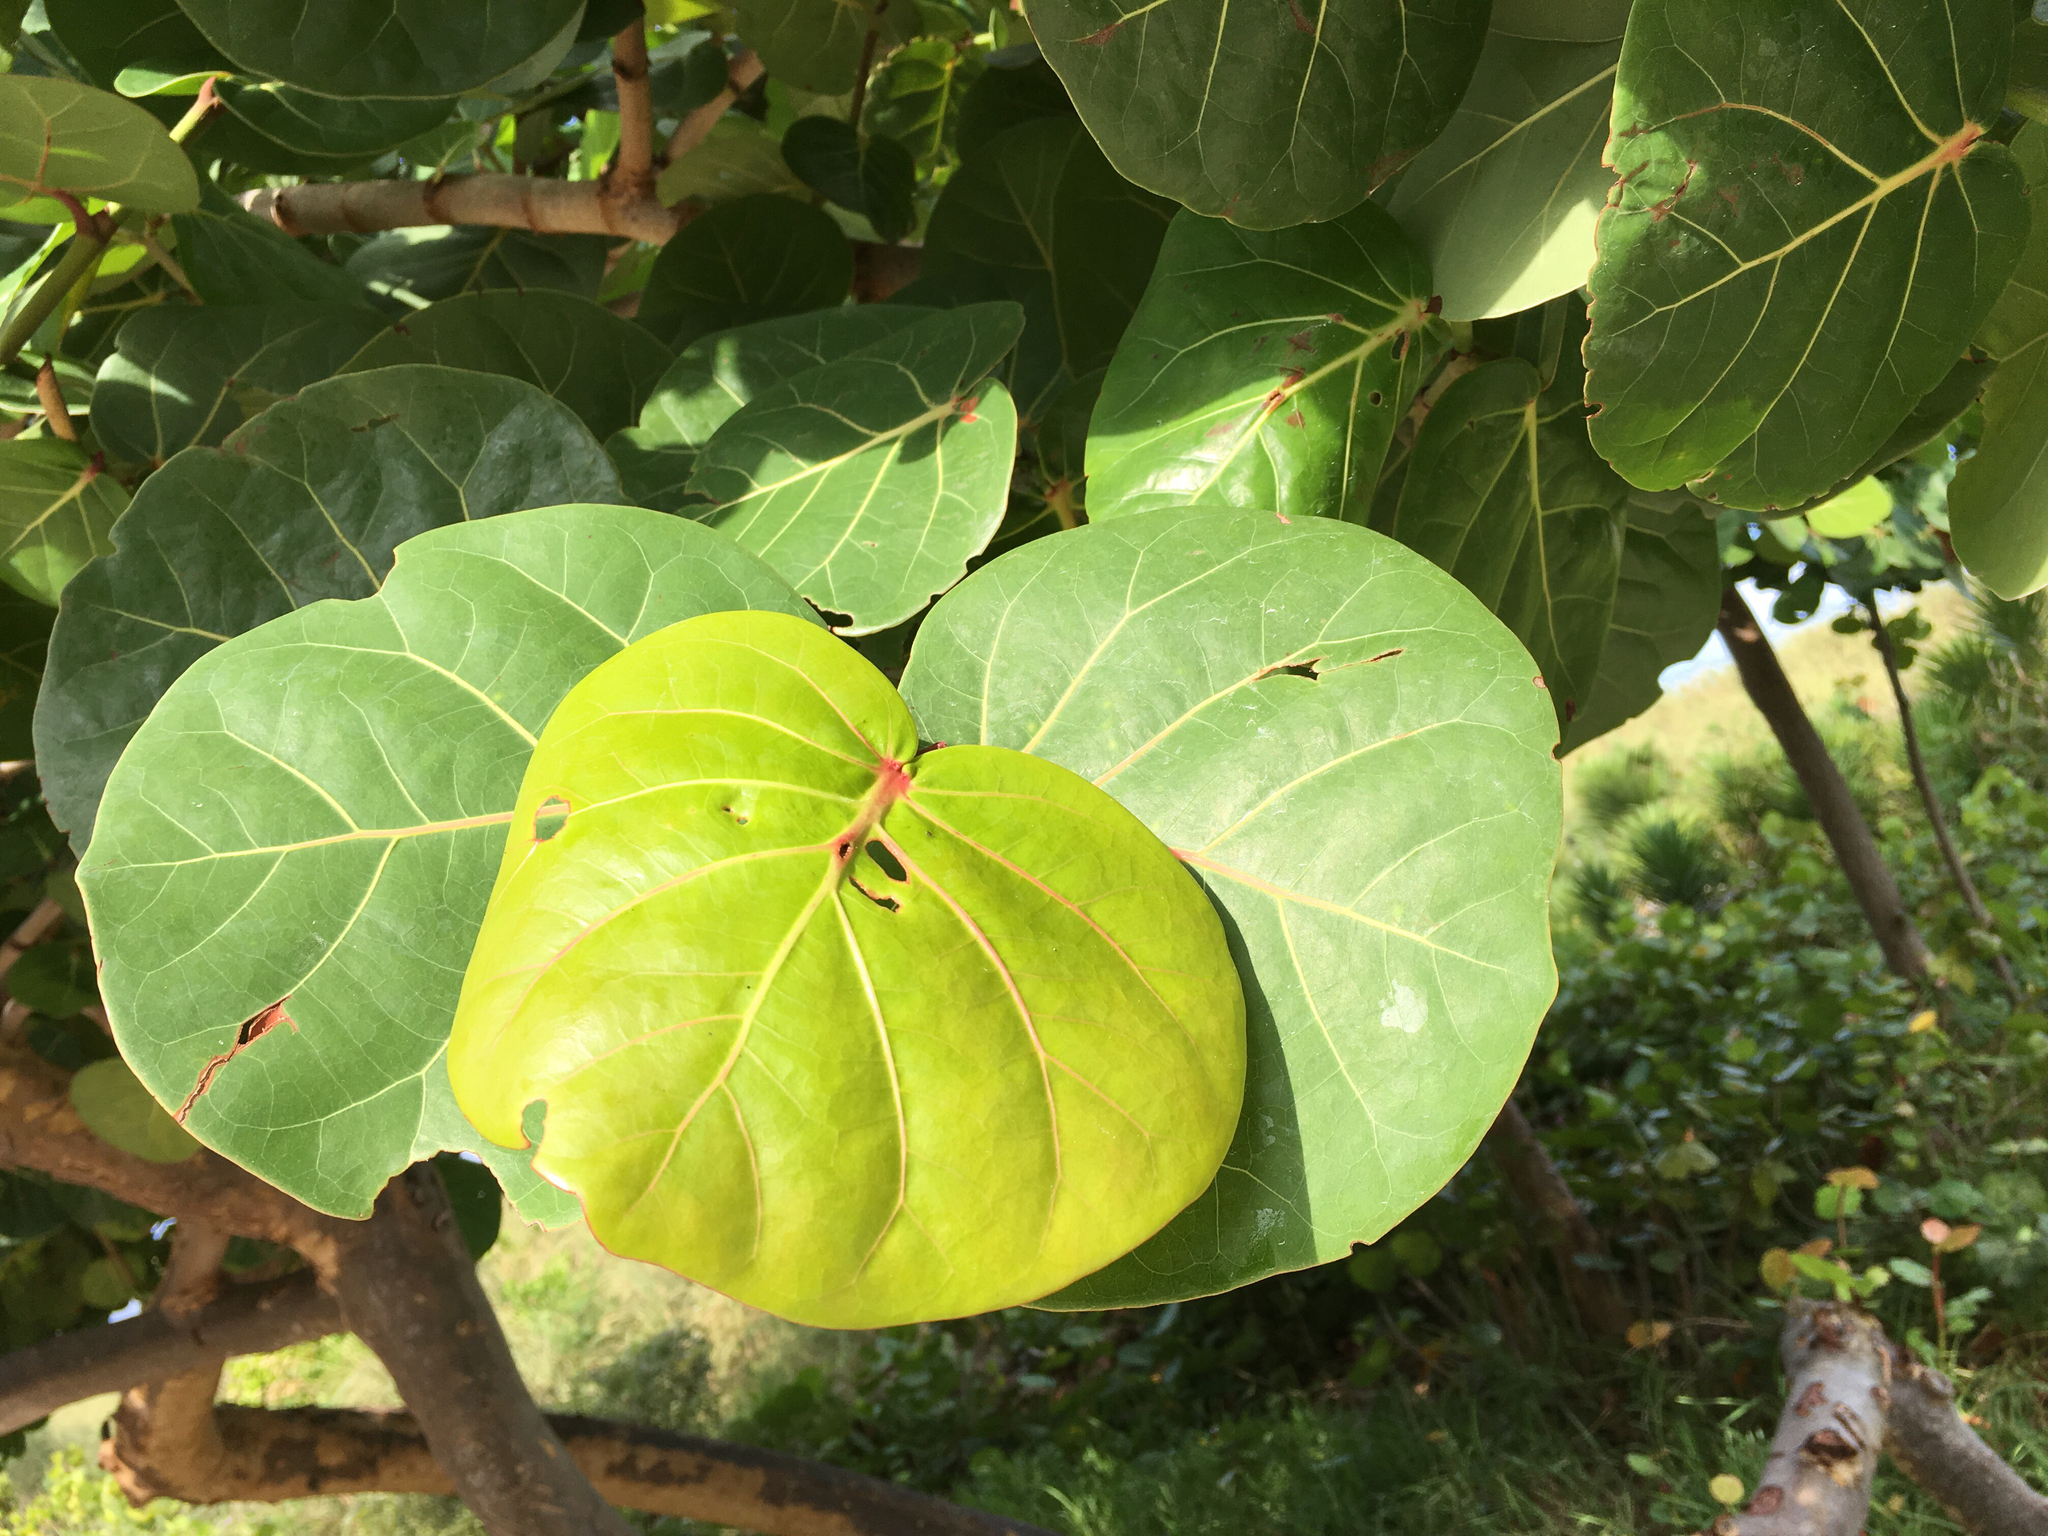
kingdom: Plantae
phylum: Tracheophyta
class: Magnoliopsida
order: Caryophyllales
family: Polygonaceae
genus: Coccoloba
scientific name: Coccoloba uvifera
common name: Seagrape
